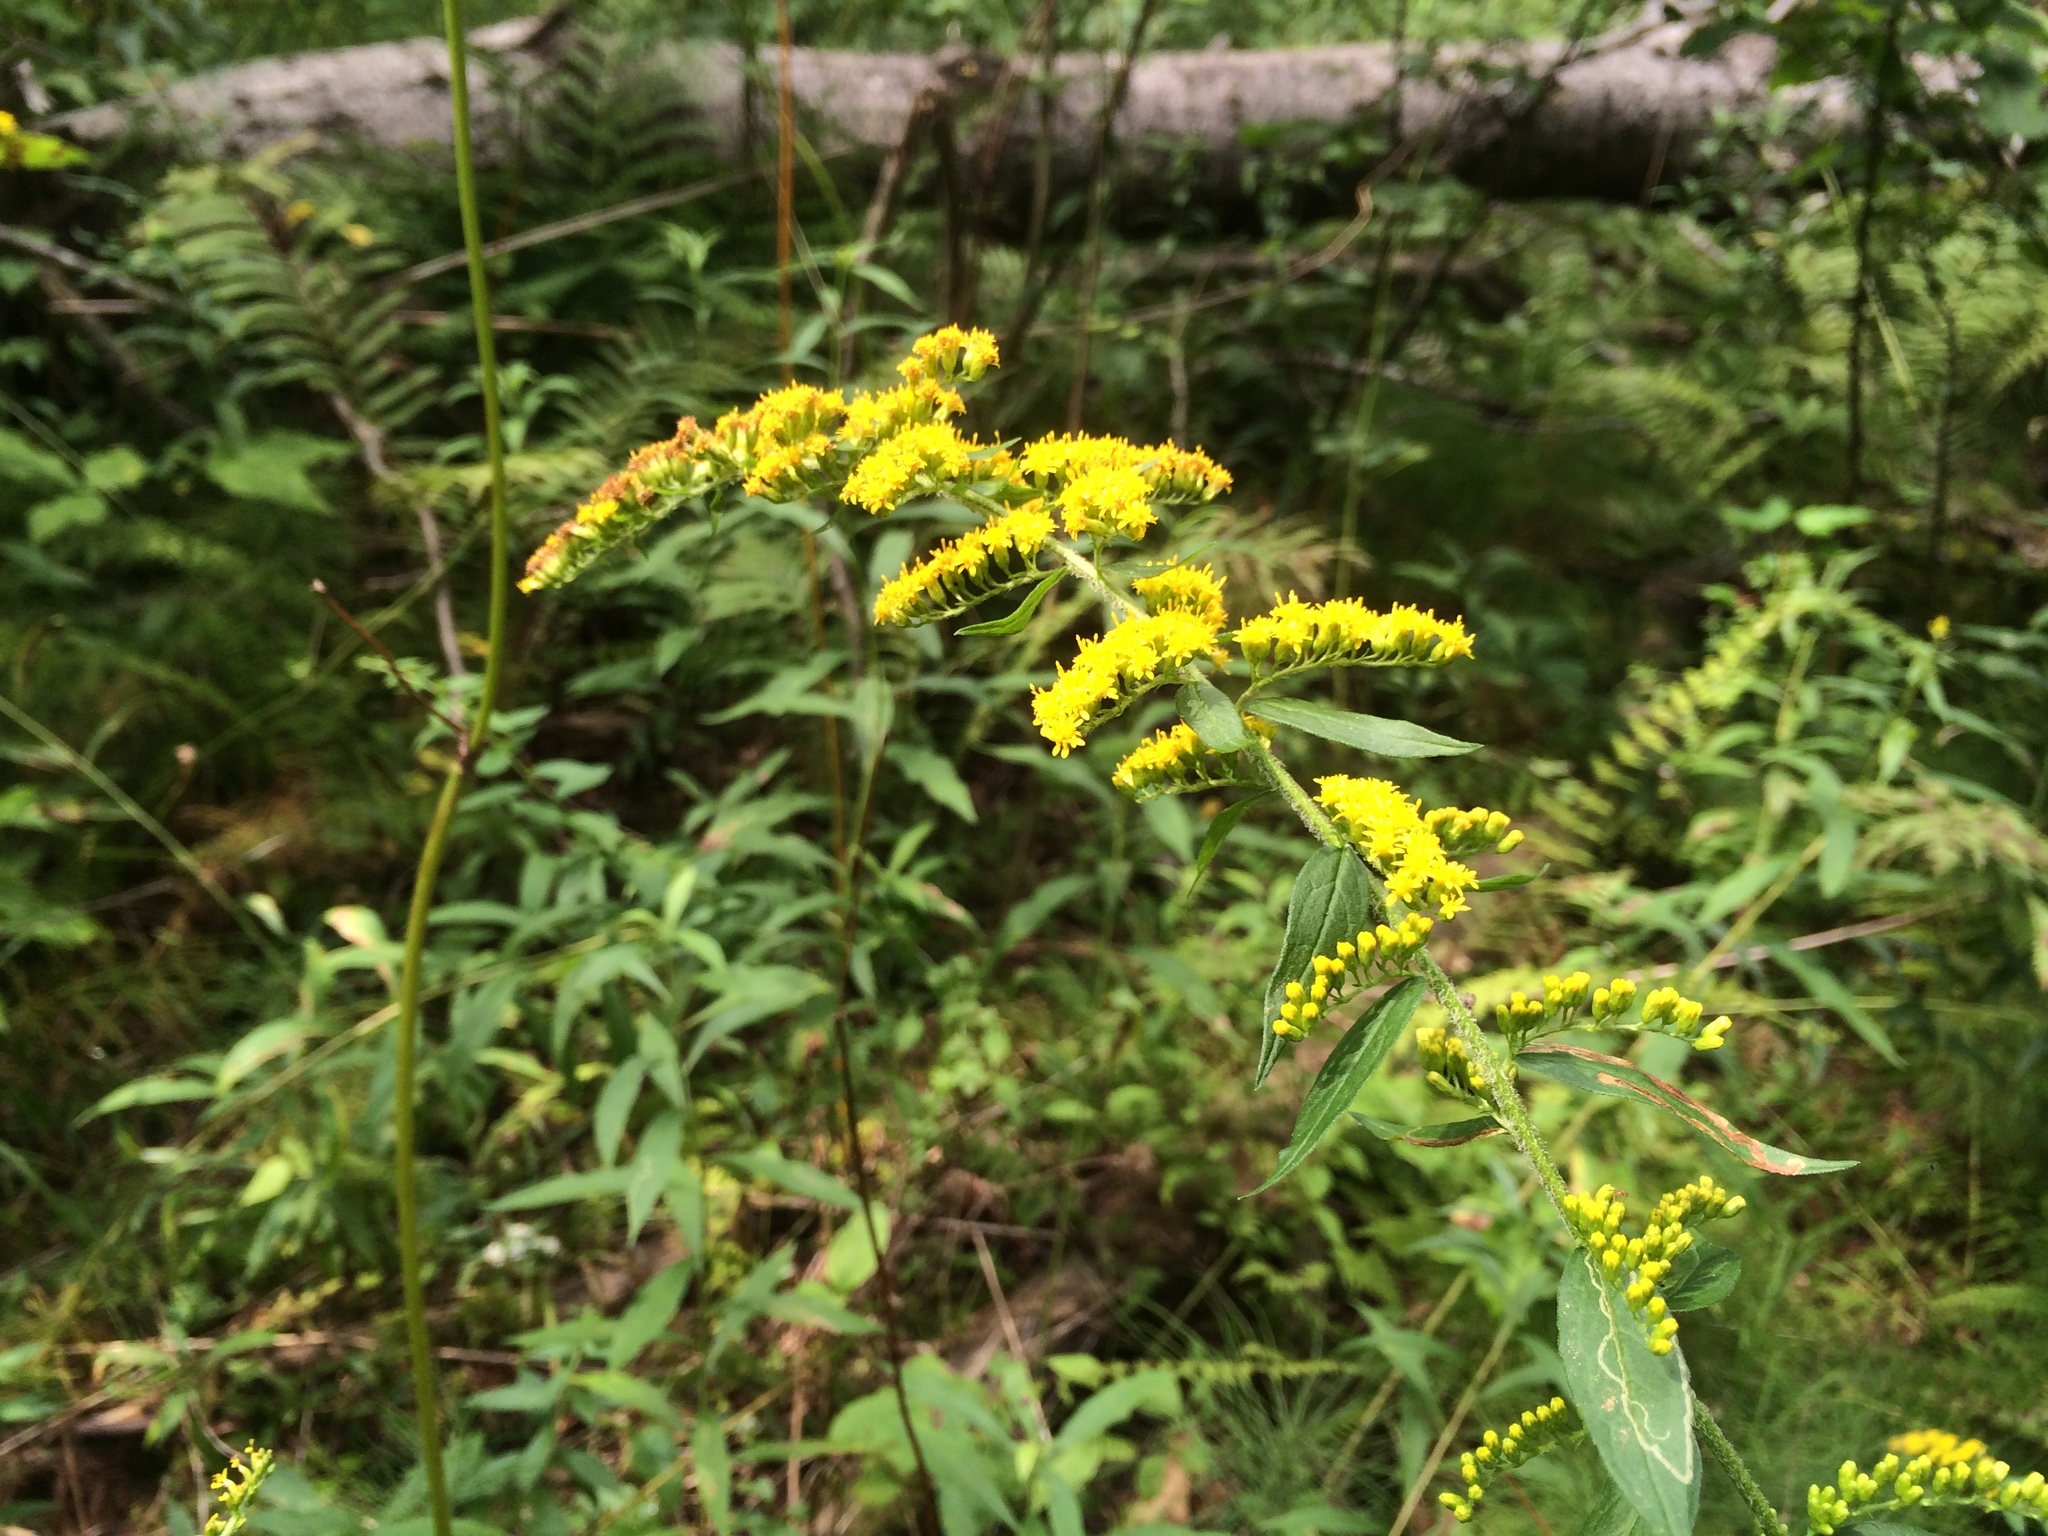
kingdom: Plantae
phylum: Tracheophyta
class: Magnoliopsida
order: Asterales
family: Asteraceae
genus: Solidago
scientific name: Solidago rugosa
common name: Rough-stemmed goldenrod
